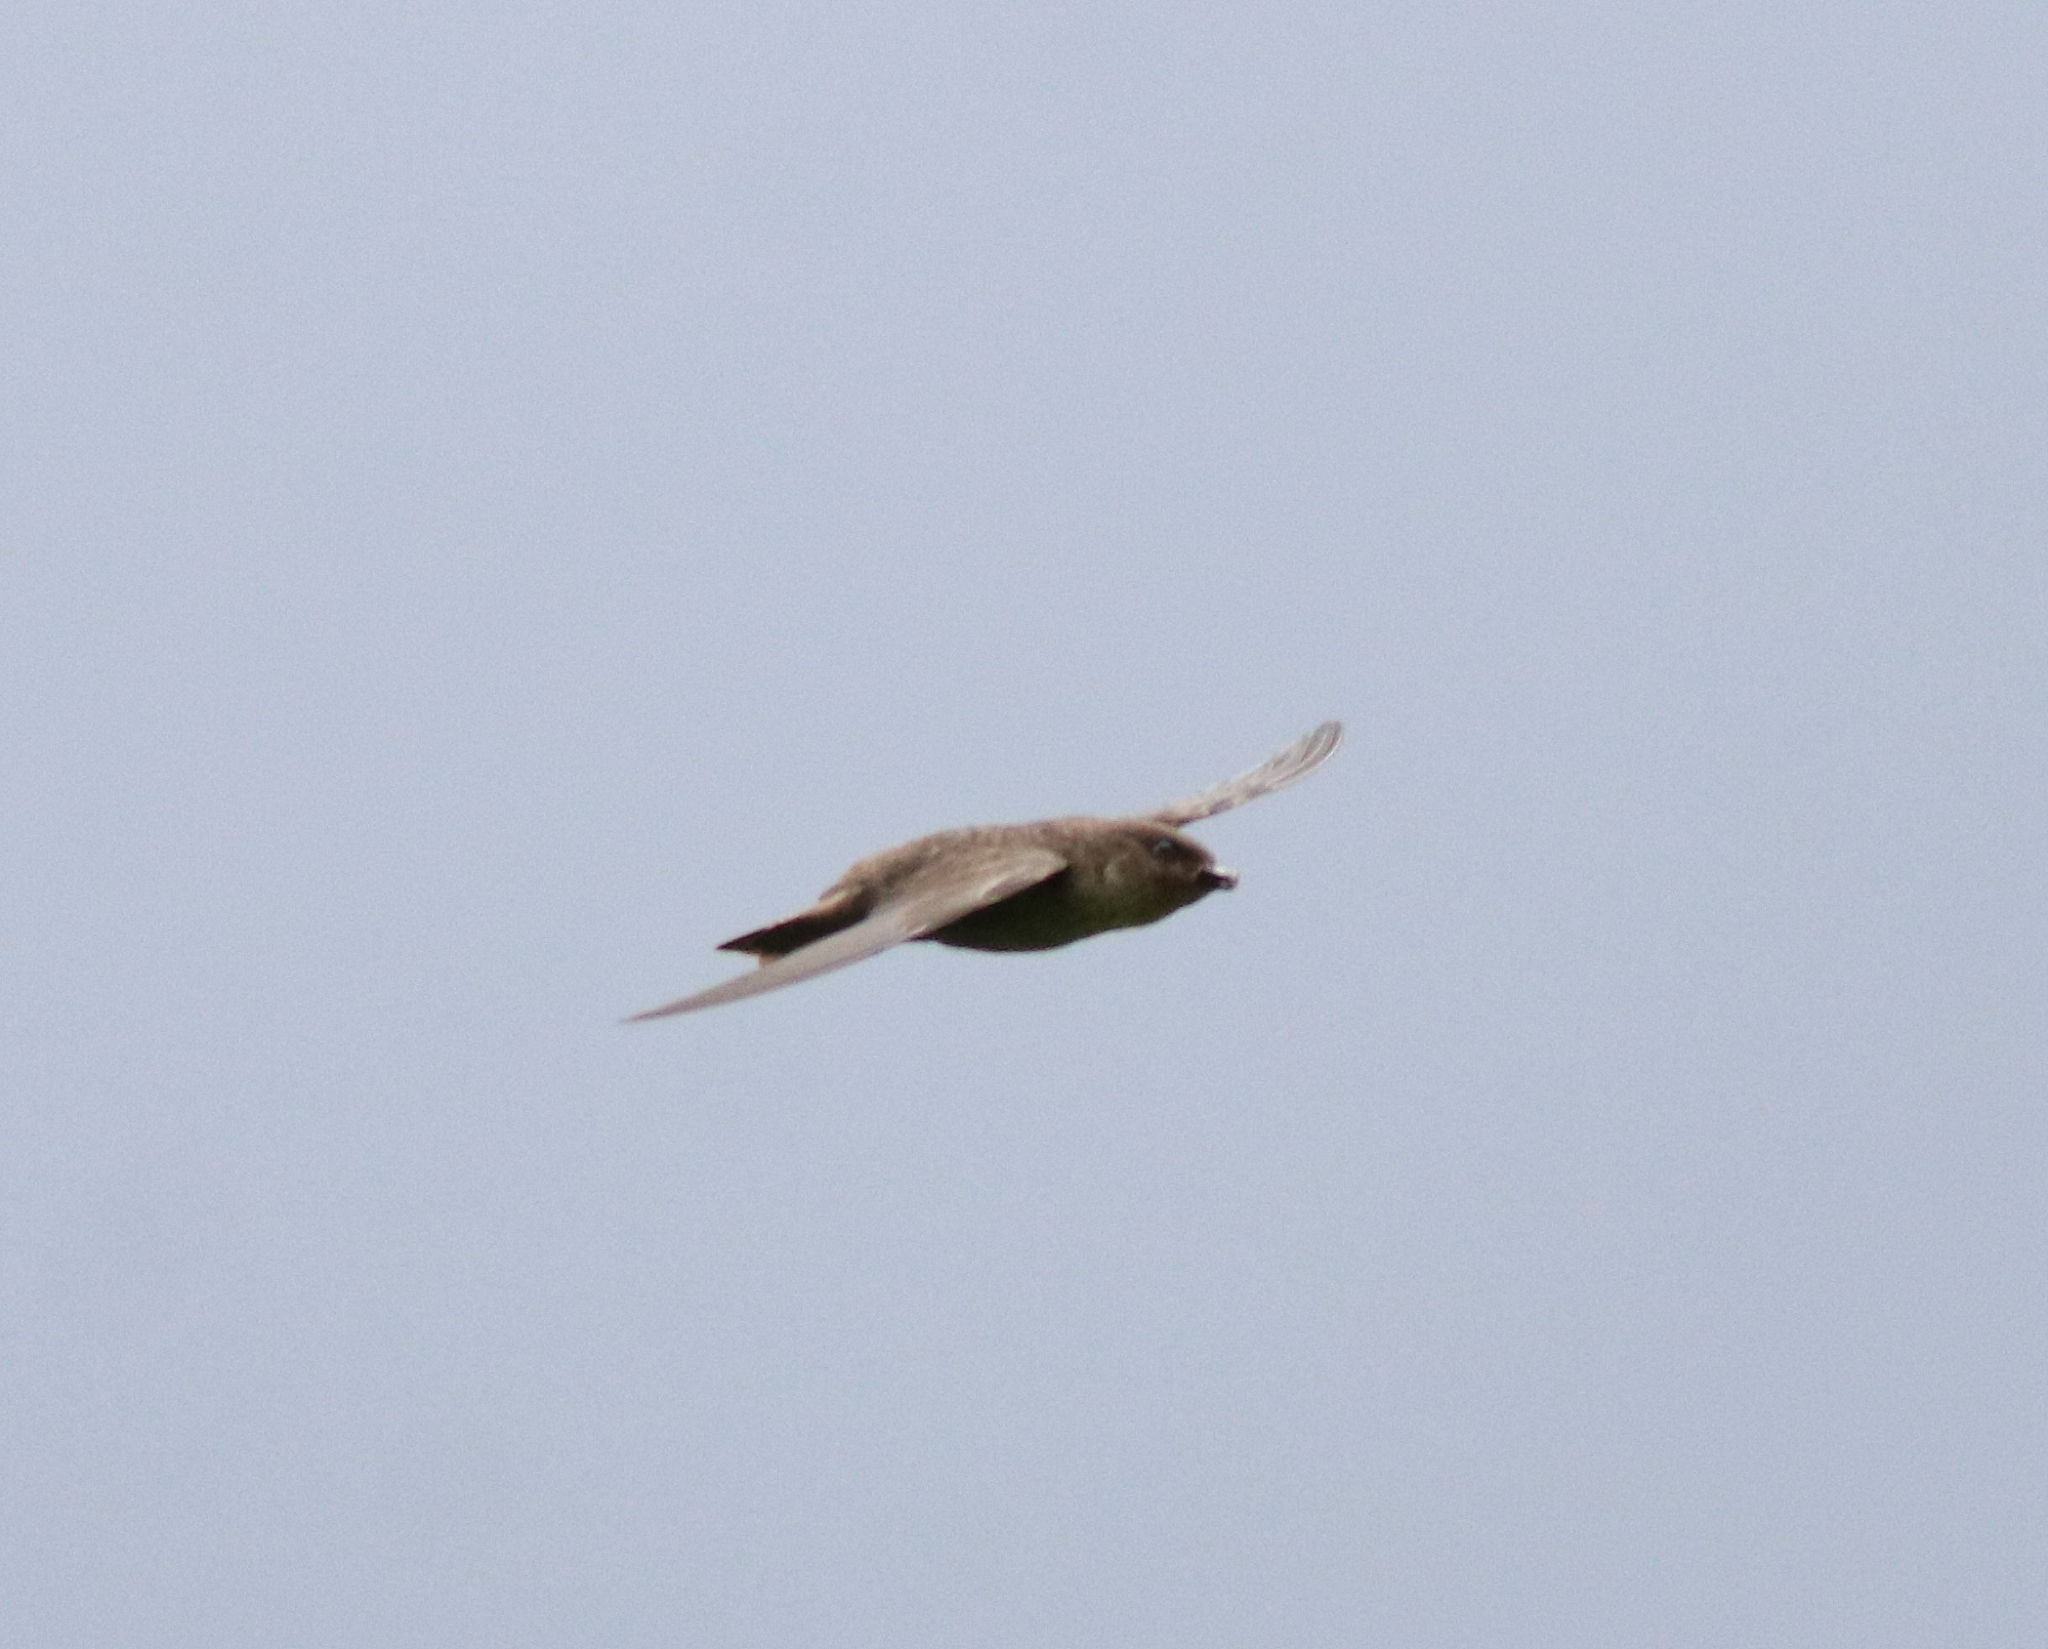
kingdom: Animalia
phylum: Chordata
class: Aves
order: Passeriformes
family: Hirundinidae
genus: Ptyonoprogne
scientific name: Ptyonoprogne concolor
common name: Dusky crag-martin
